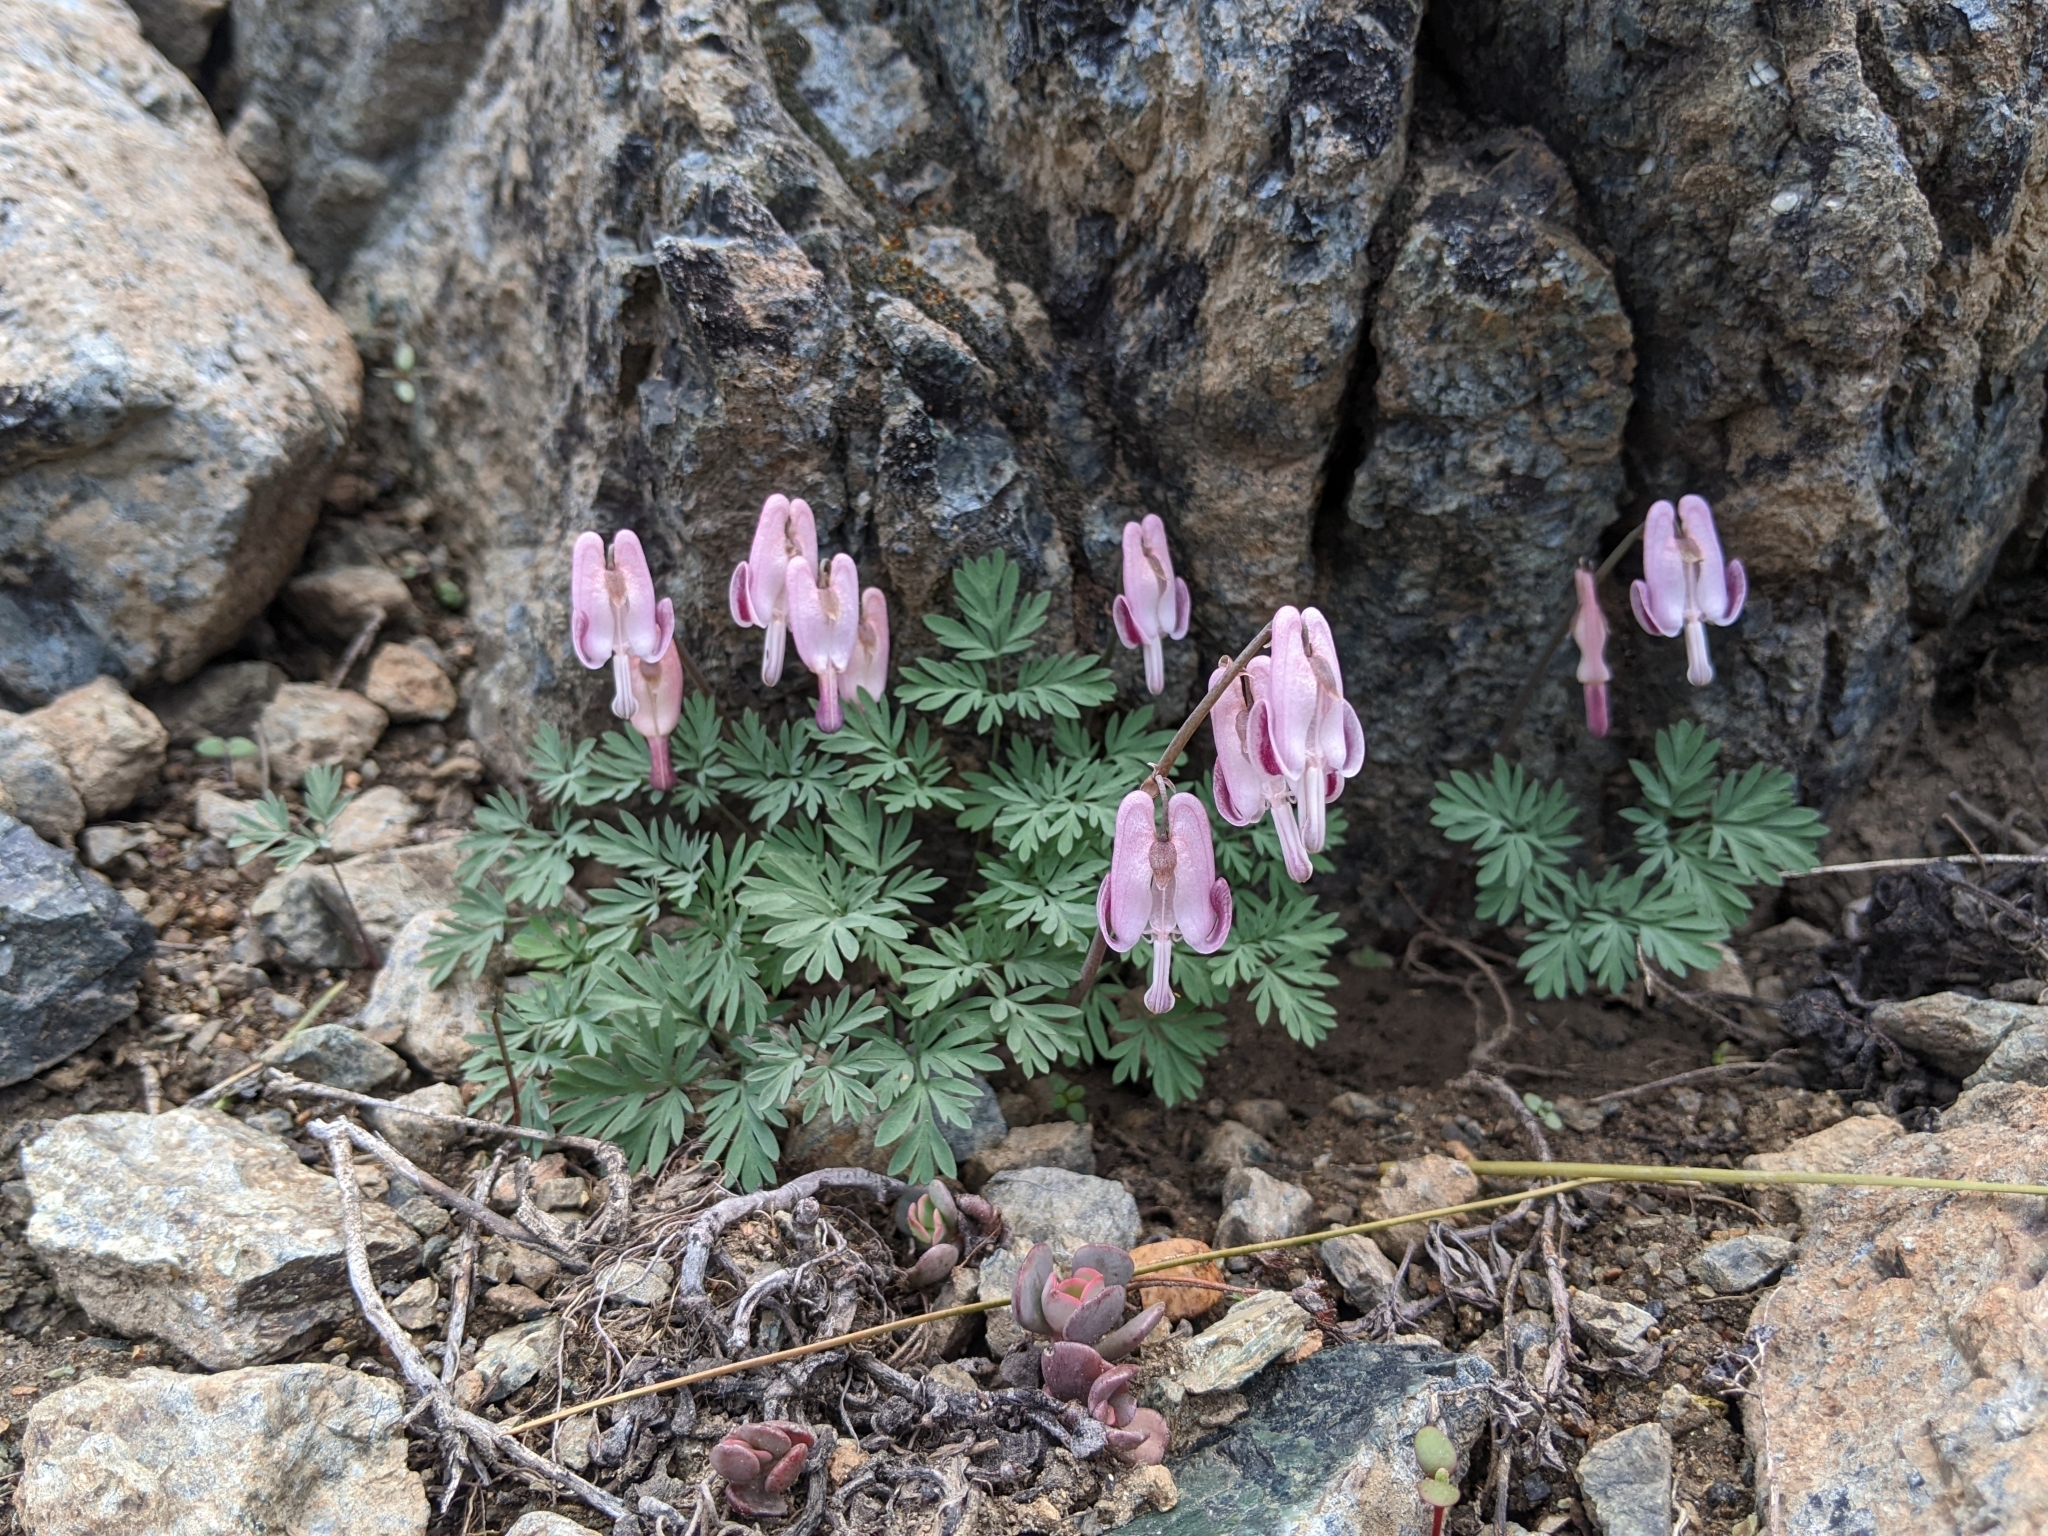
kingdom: Plantae
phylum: Tracheophyta
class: Magnoliopsida
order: Ranunculales
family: Papaveraceae
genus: Dicentra
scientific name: Dicentra pauciflora
